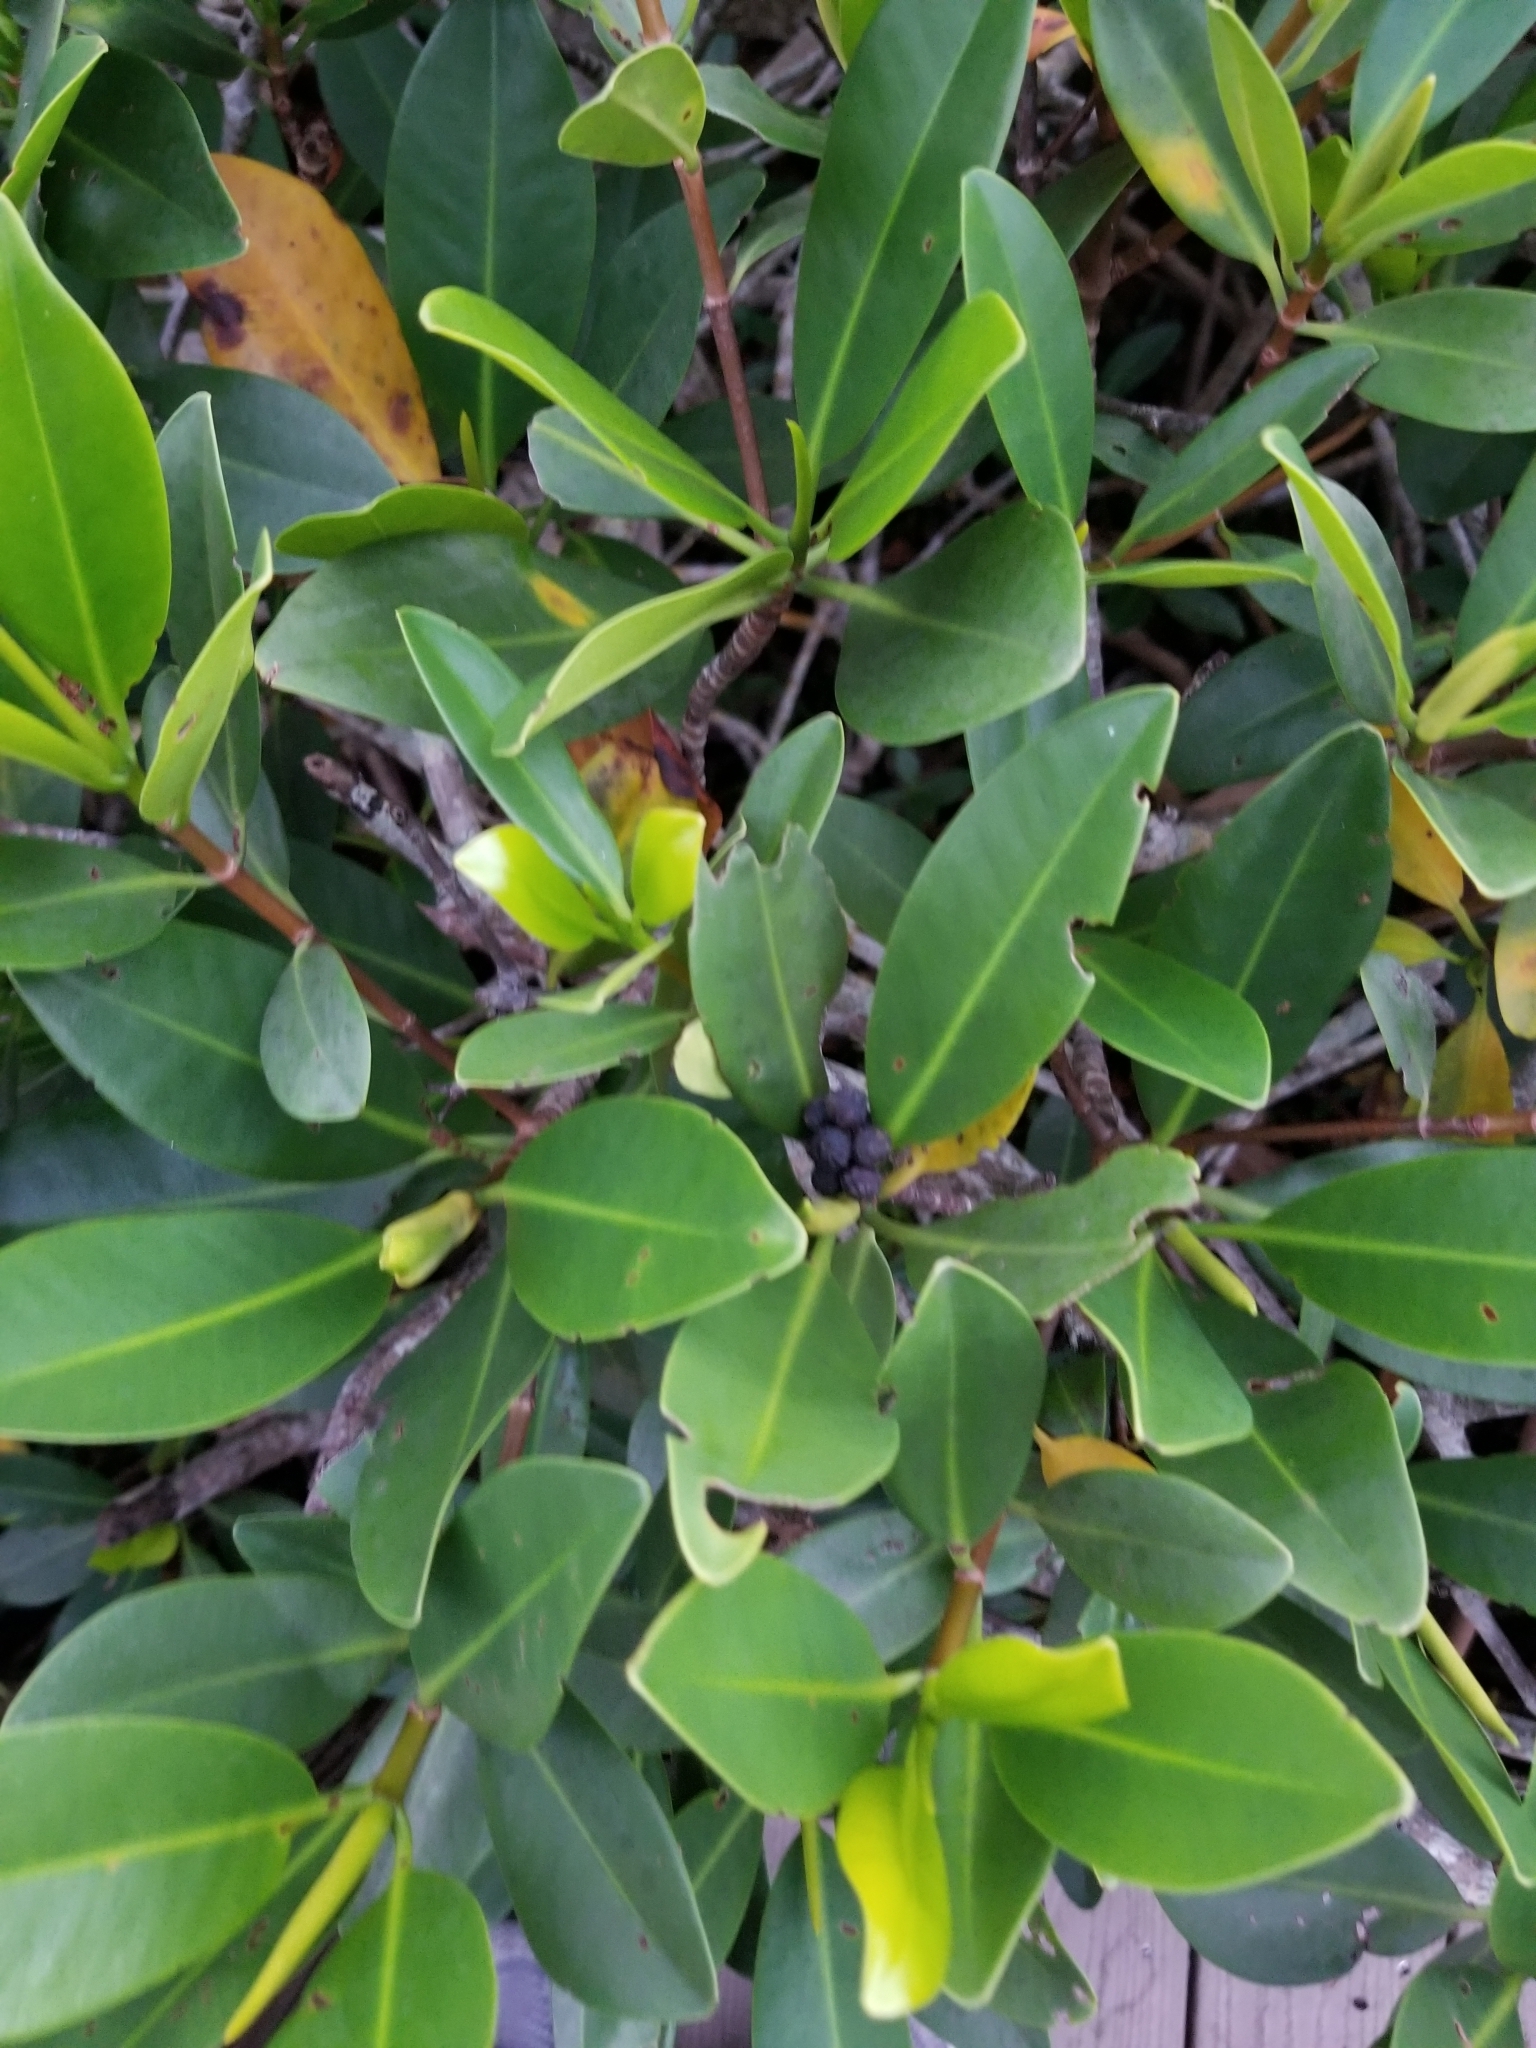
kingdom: Plantae
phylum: Tracheophyta
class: Magnoliopsida
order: Malpighiales
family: Rhizophoraceae
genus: Rhizophora
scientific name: Rhizophora mangle
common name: Red mangrove
